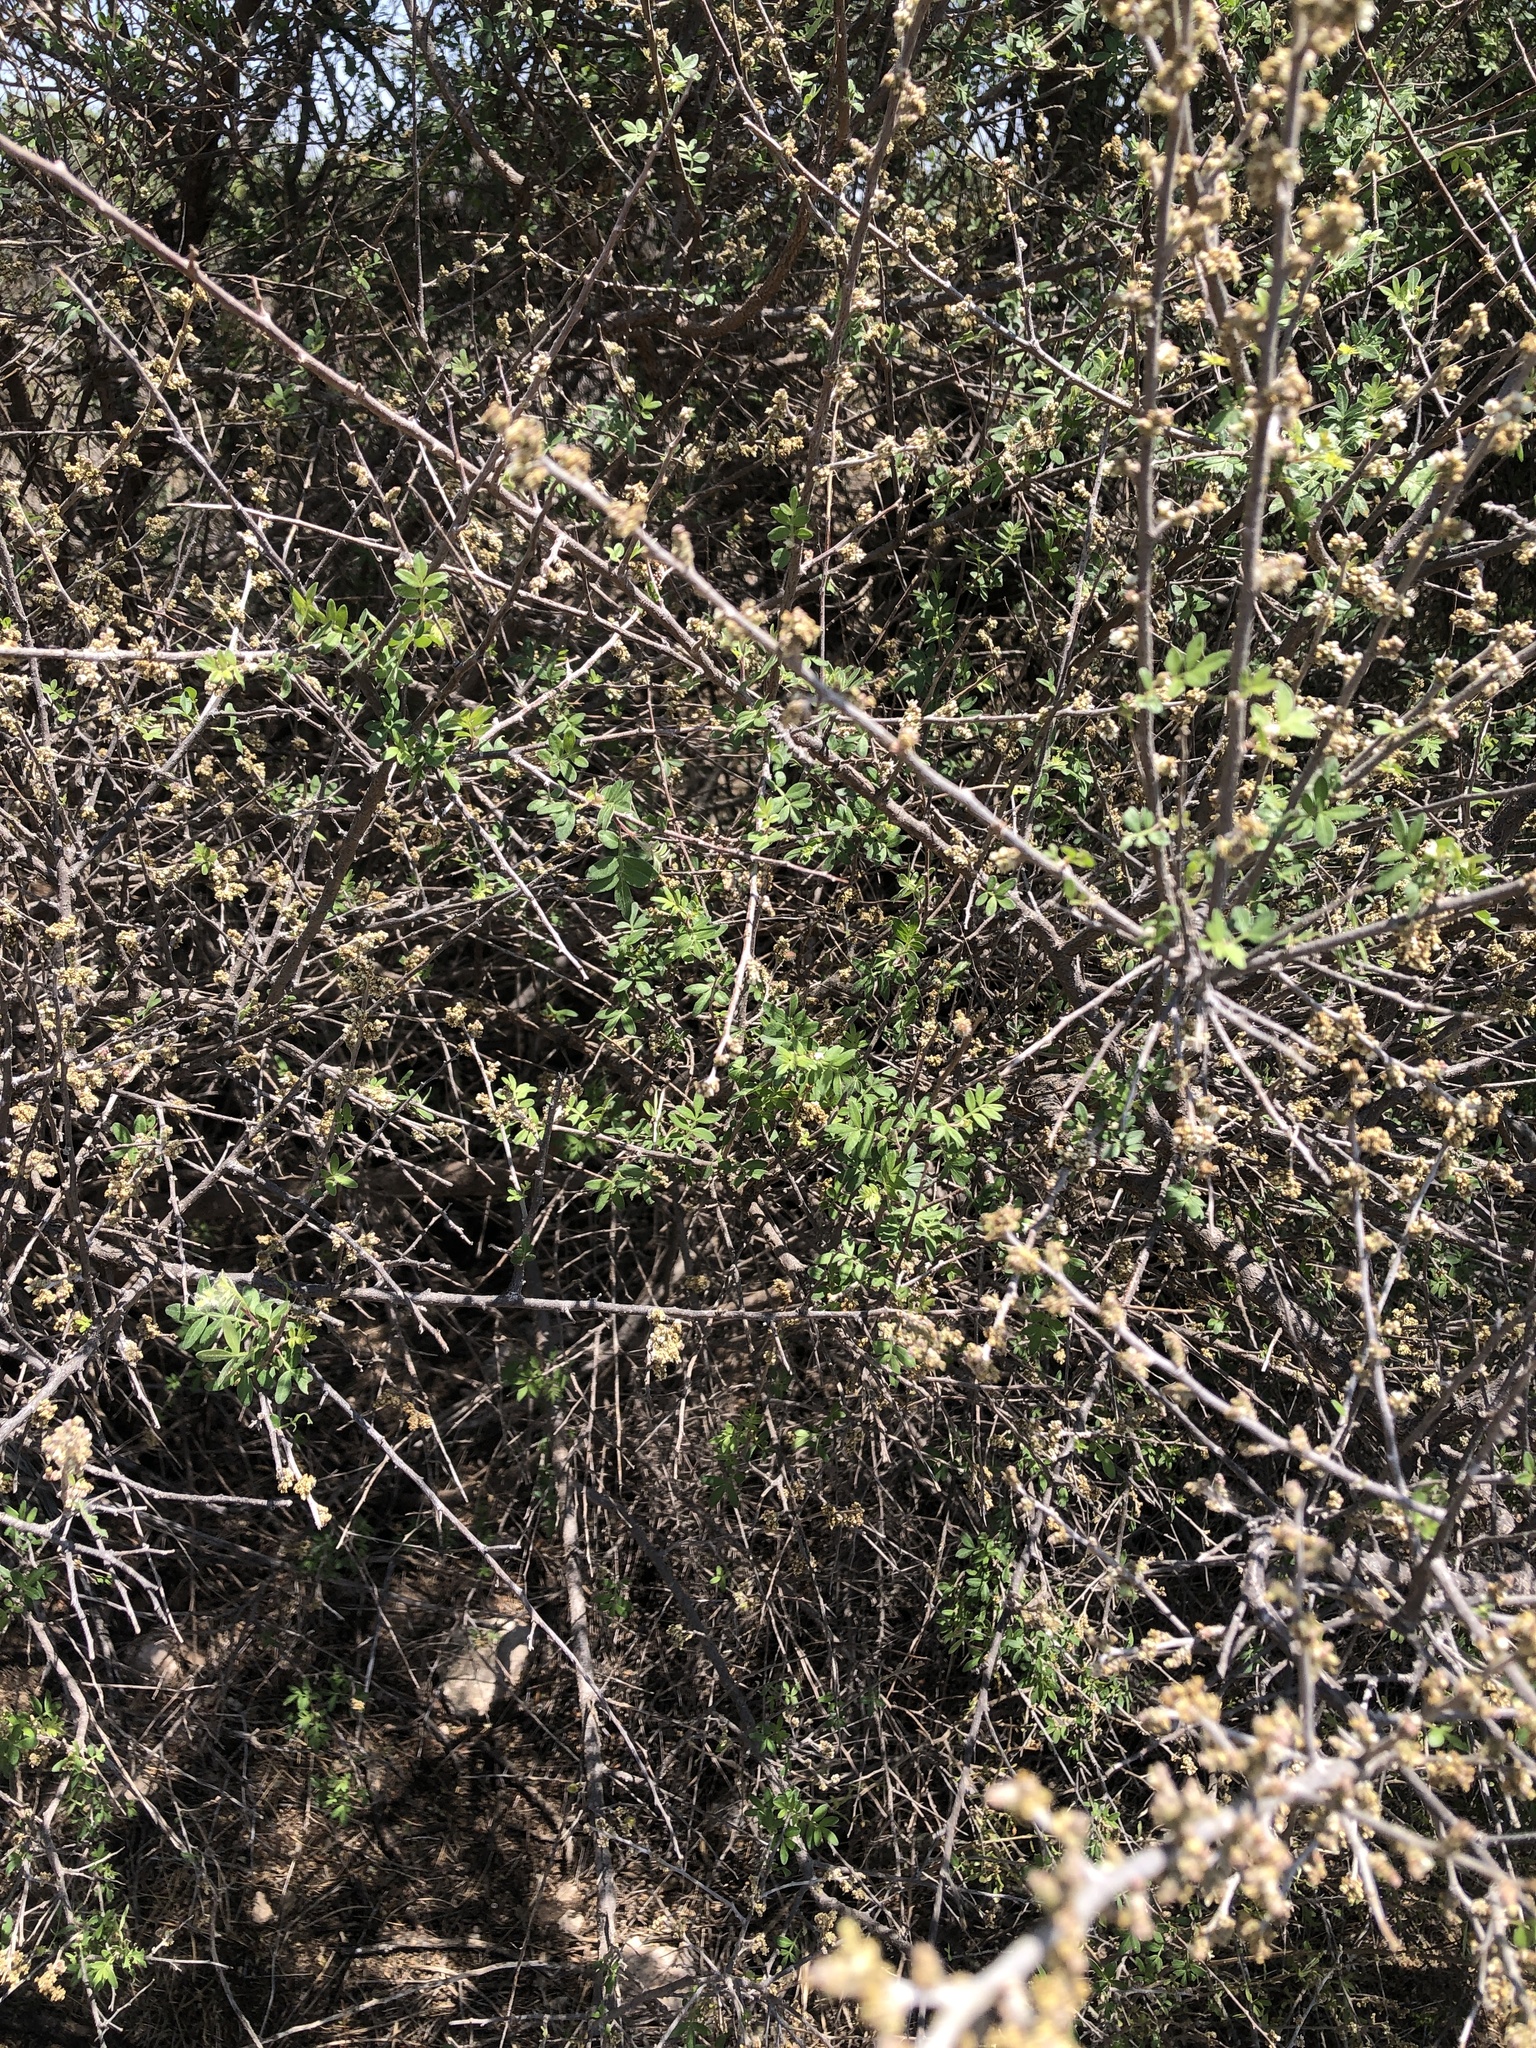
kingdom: Plantae
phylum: Tracheophyta
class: Magnoliopsida
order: Sapindales
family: Anacardiaceae
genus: Rhus
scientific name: Rhus microphylla
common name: Desert sumac
